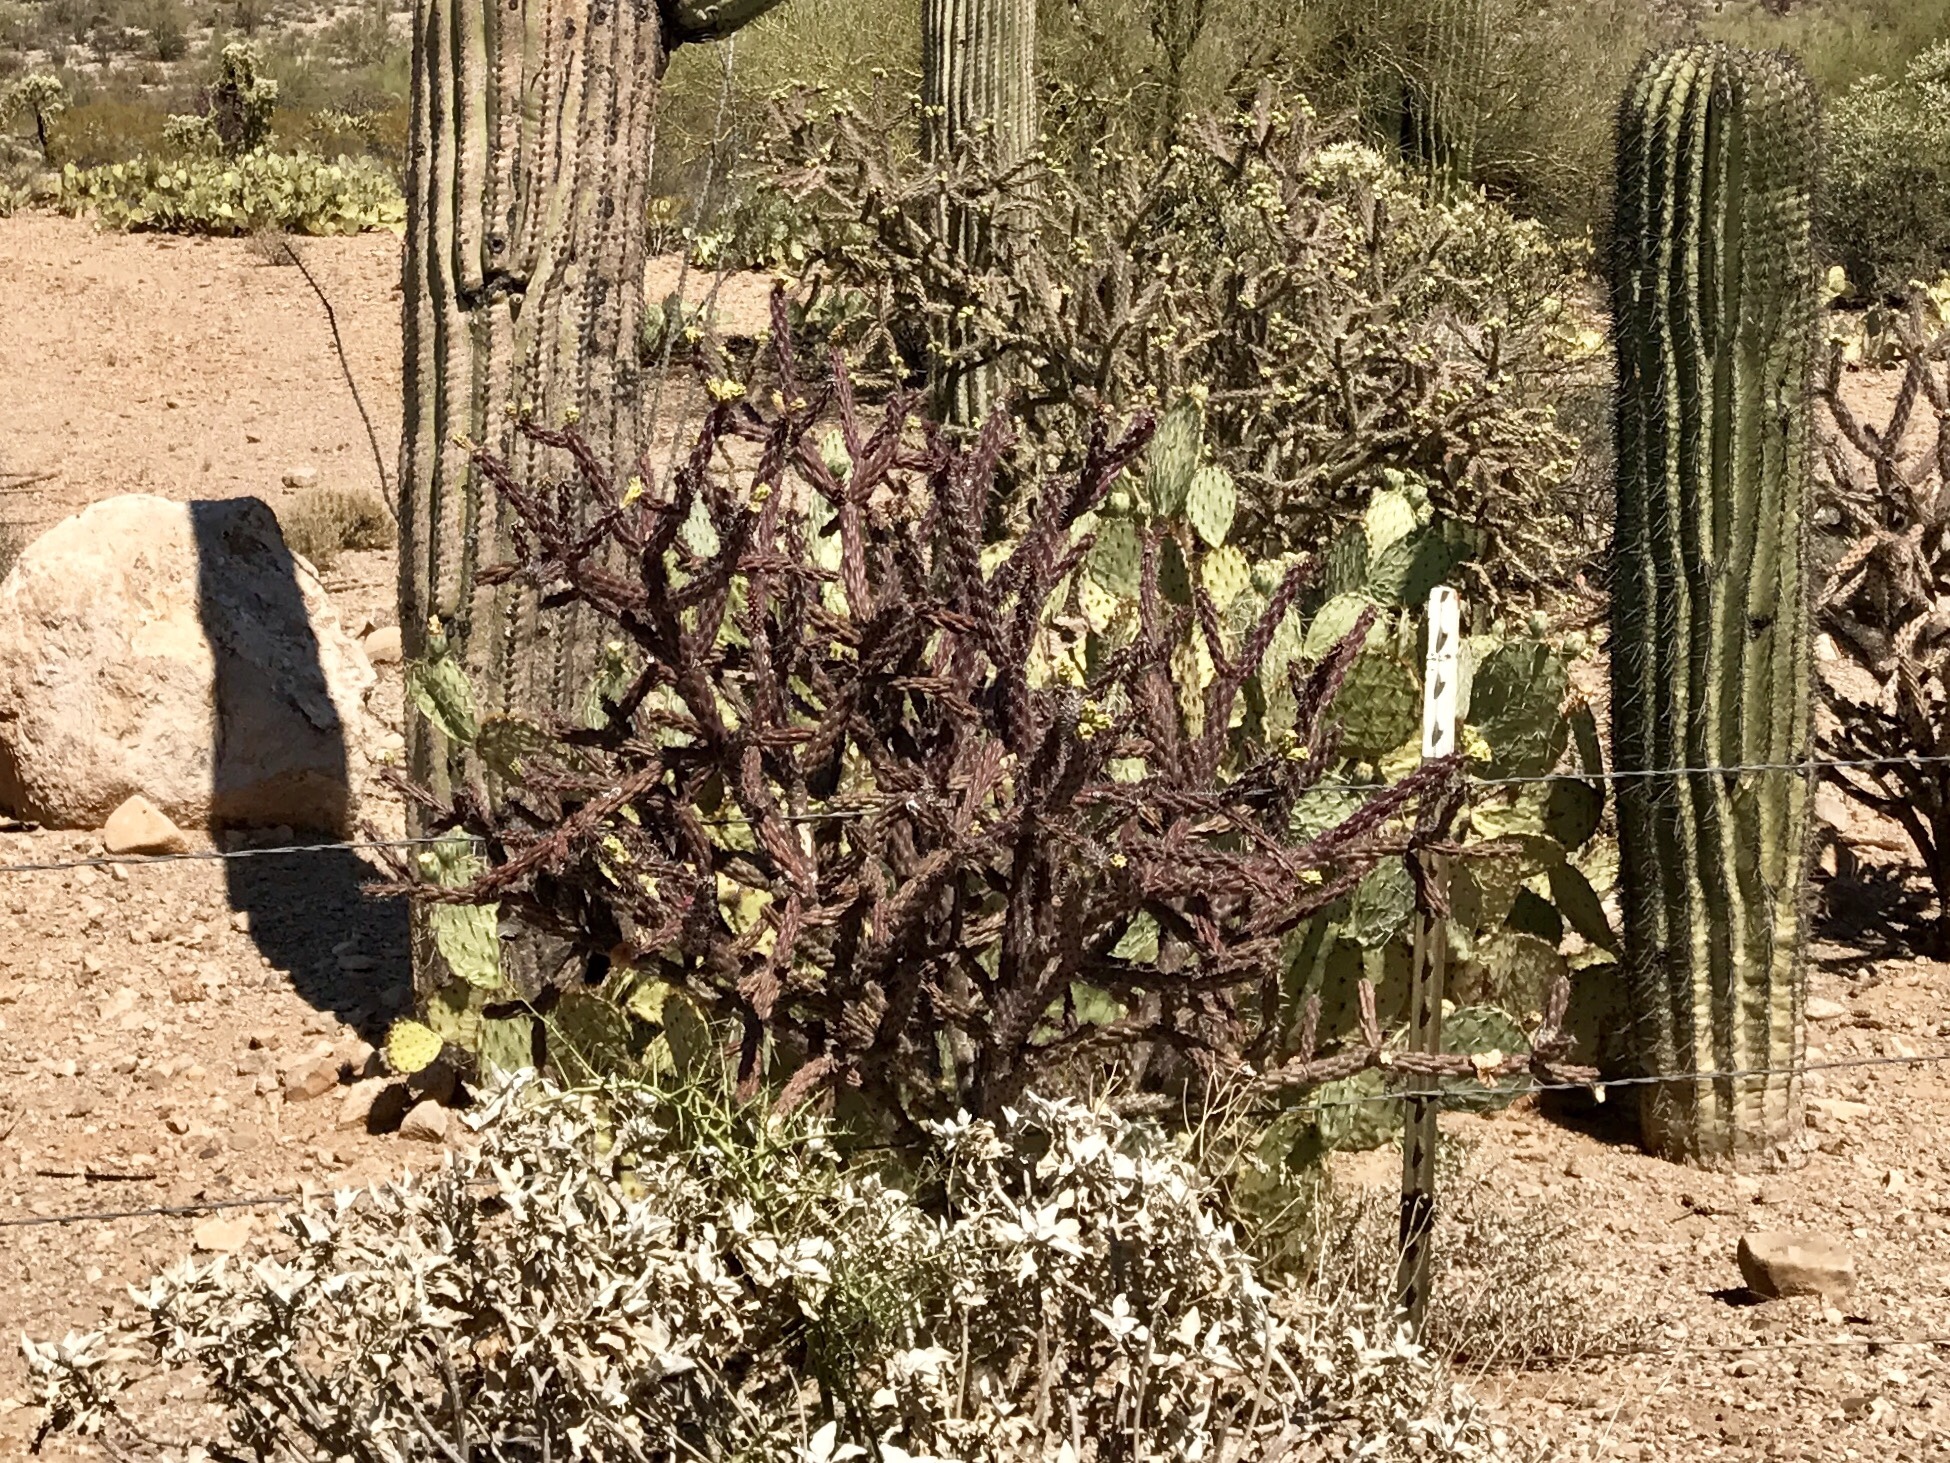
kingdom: Plantae
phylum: Tracheophyta
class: Magnoliopsida
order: Caryophyllales
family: Cactaceae
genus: Cylindropuntia
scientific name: Cylindropuntia thurberi
